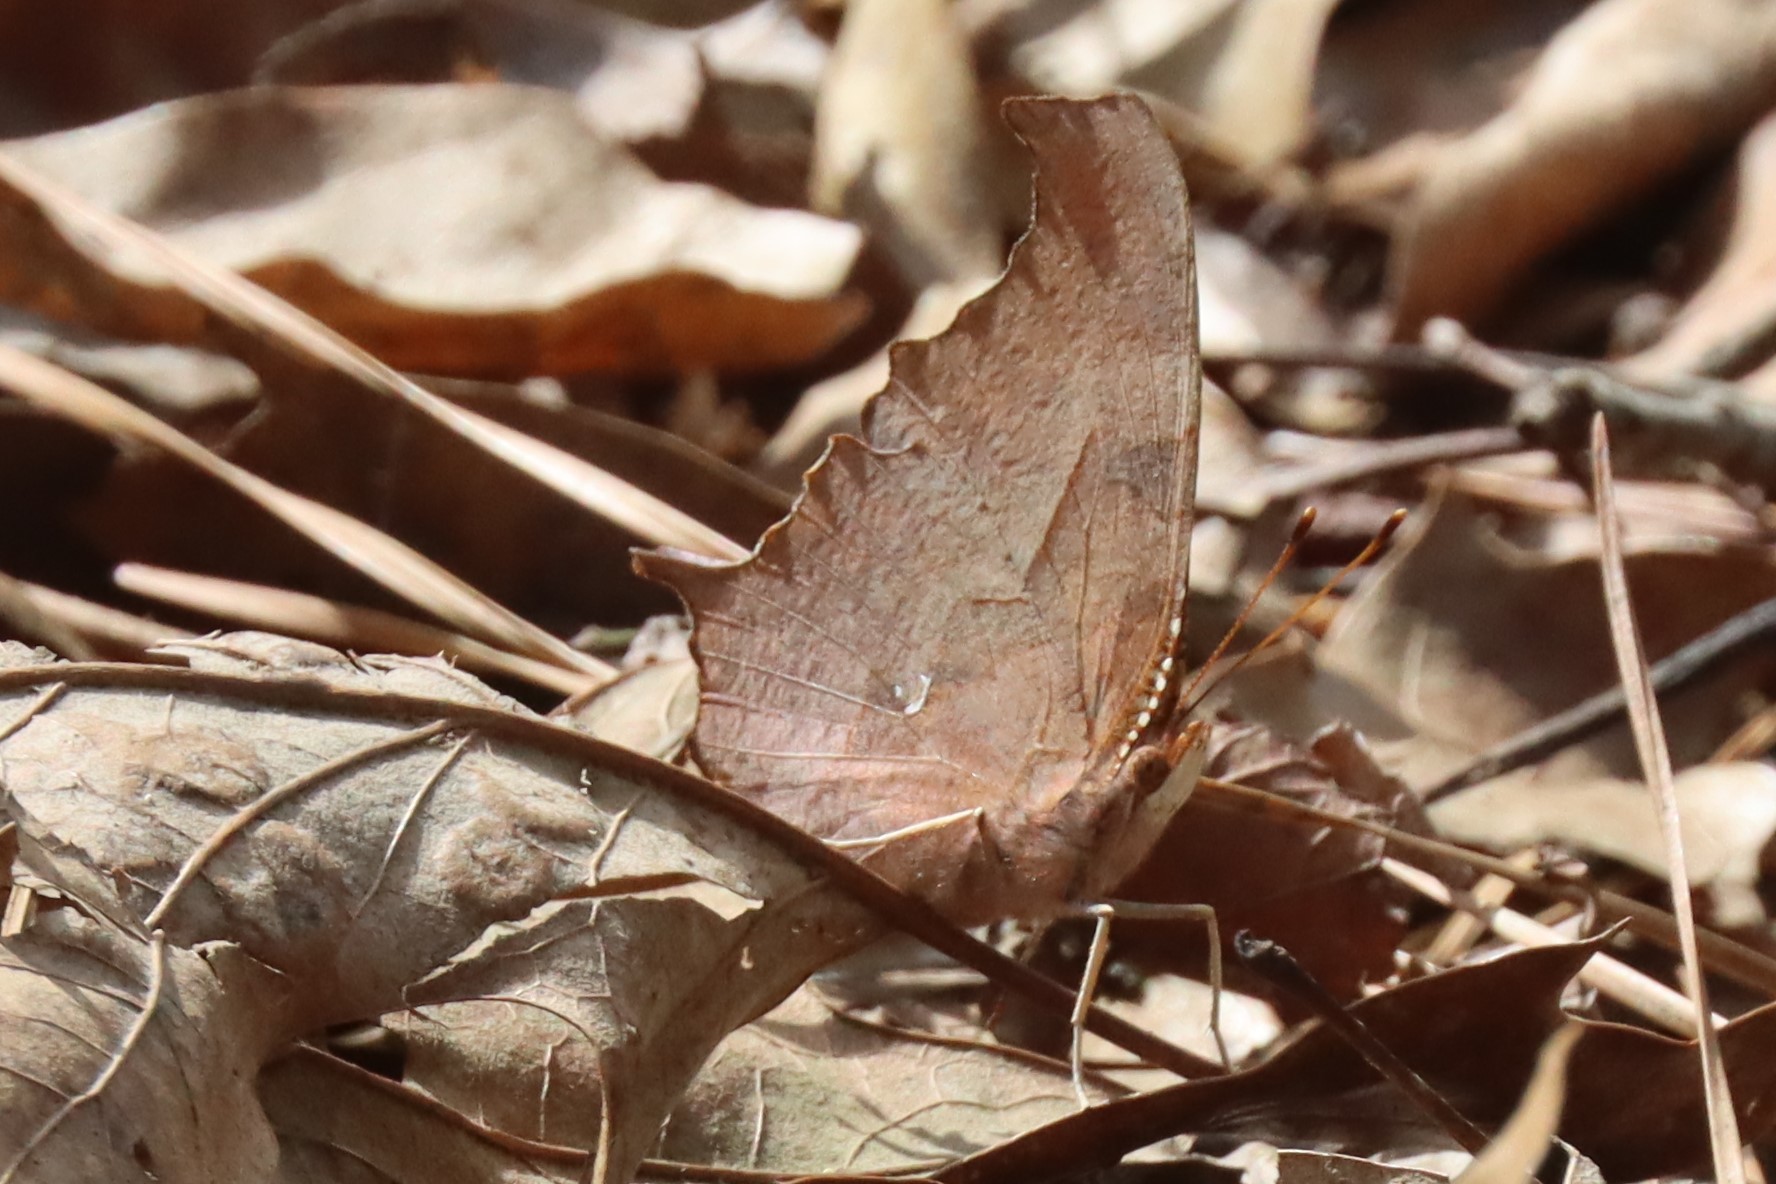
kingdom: Animalia
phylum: Arthropoda
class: Insecta
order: Lepidoptera
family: Nymphalidae
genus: Polygonia
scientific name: Polygonia interrogationis
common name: Question mark
